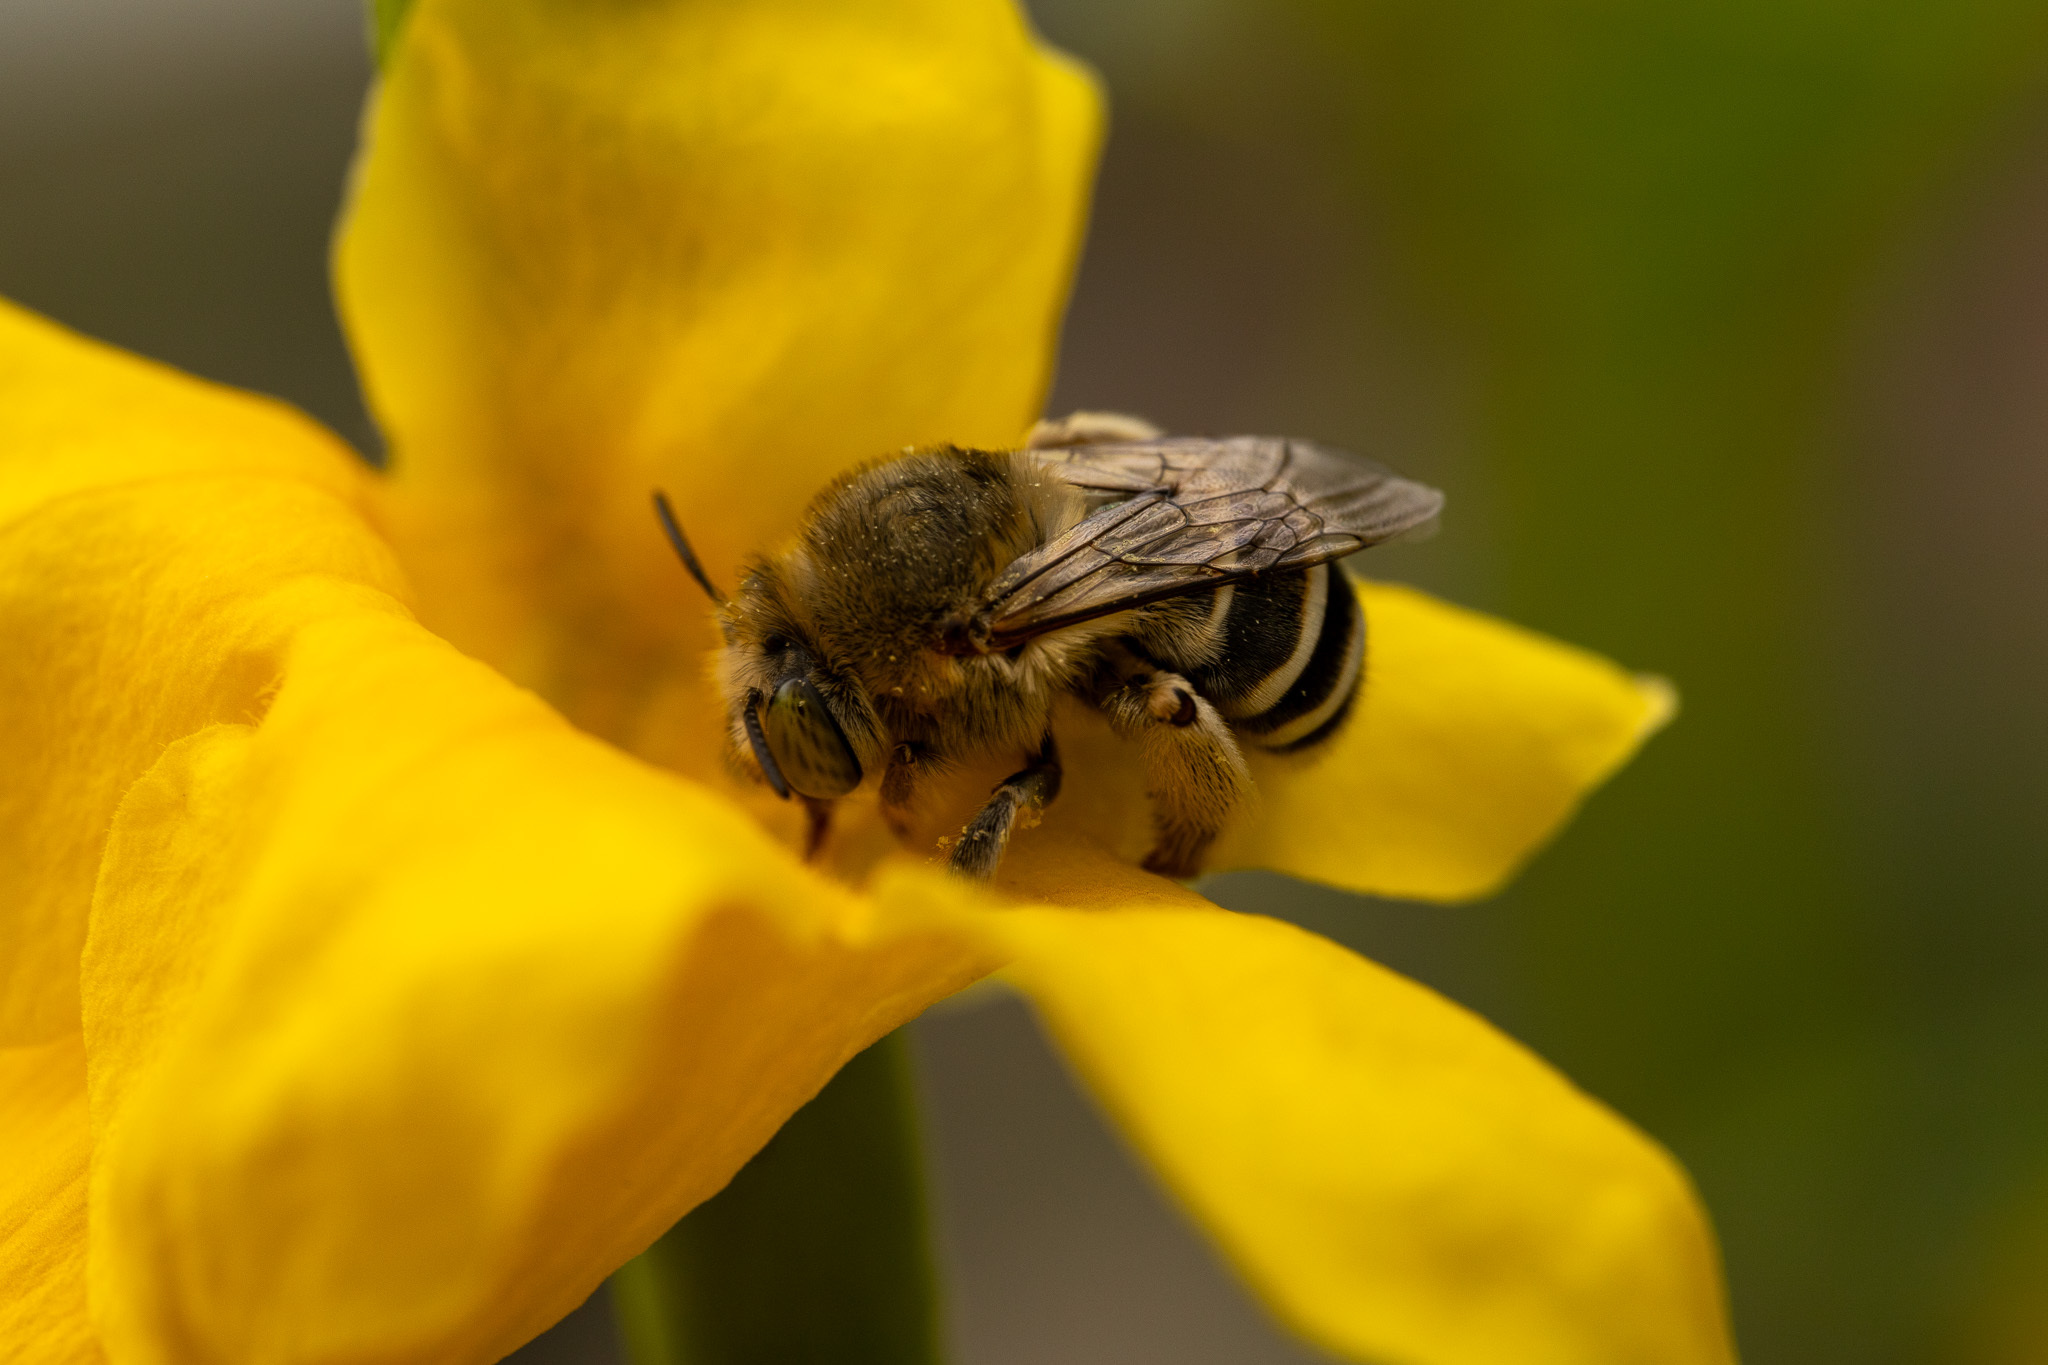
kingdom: Animalia
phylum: Arthropoda
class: Insecta
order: Hymenoptera
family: Apidae
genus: Anthophora
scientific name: Anthophora californica
